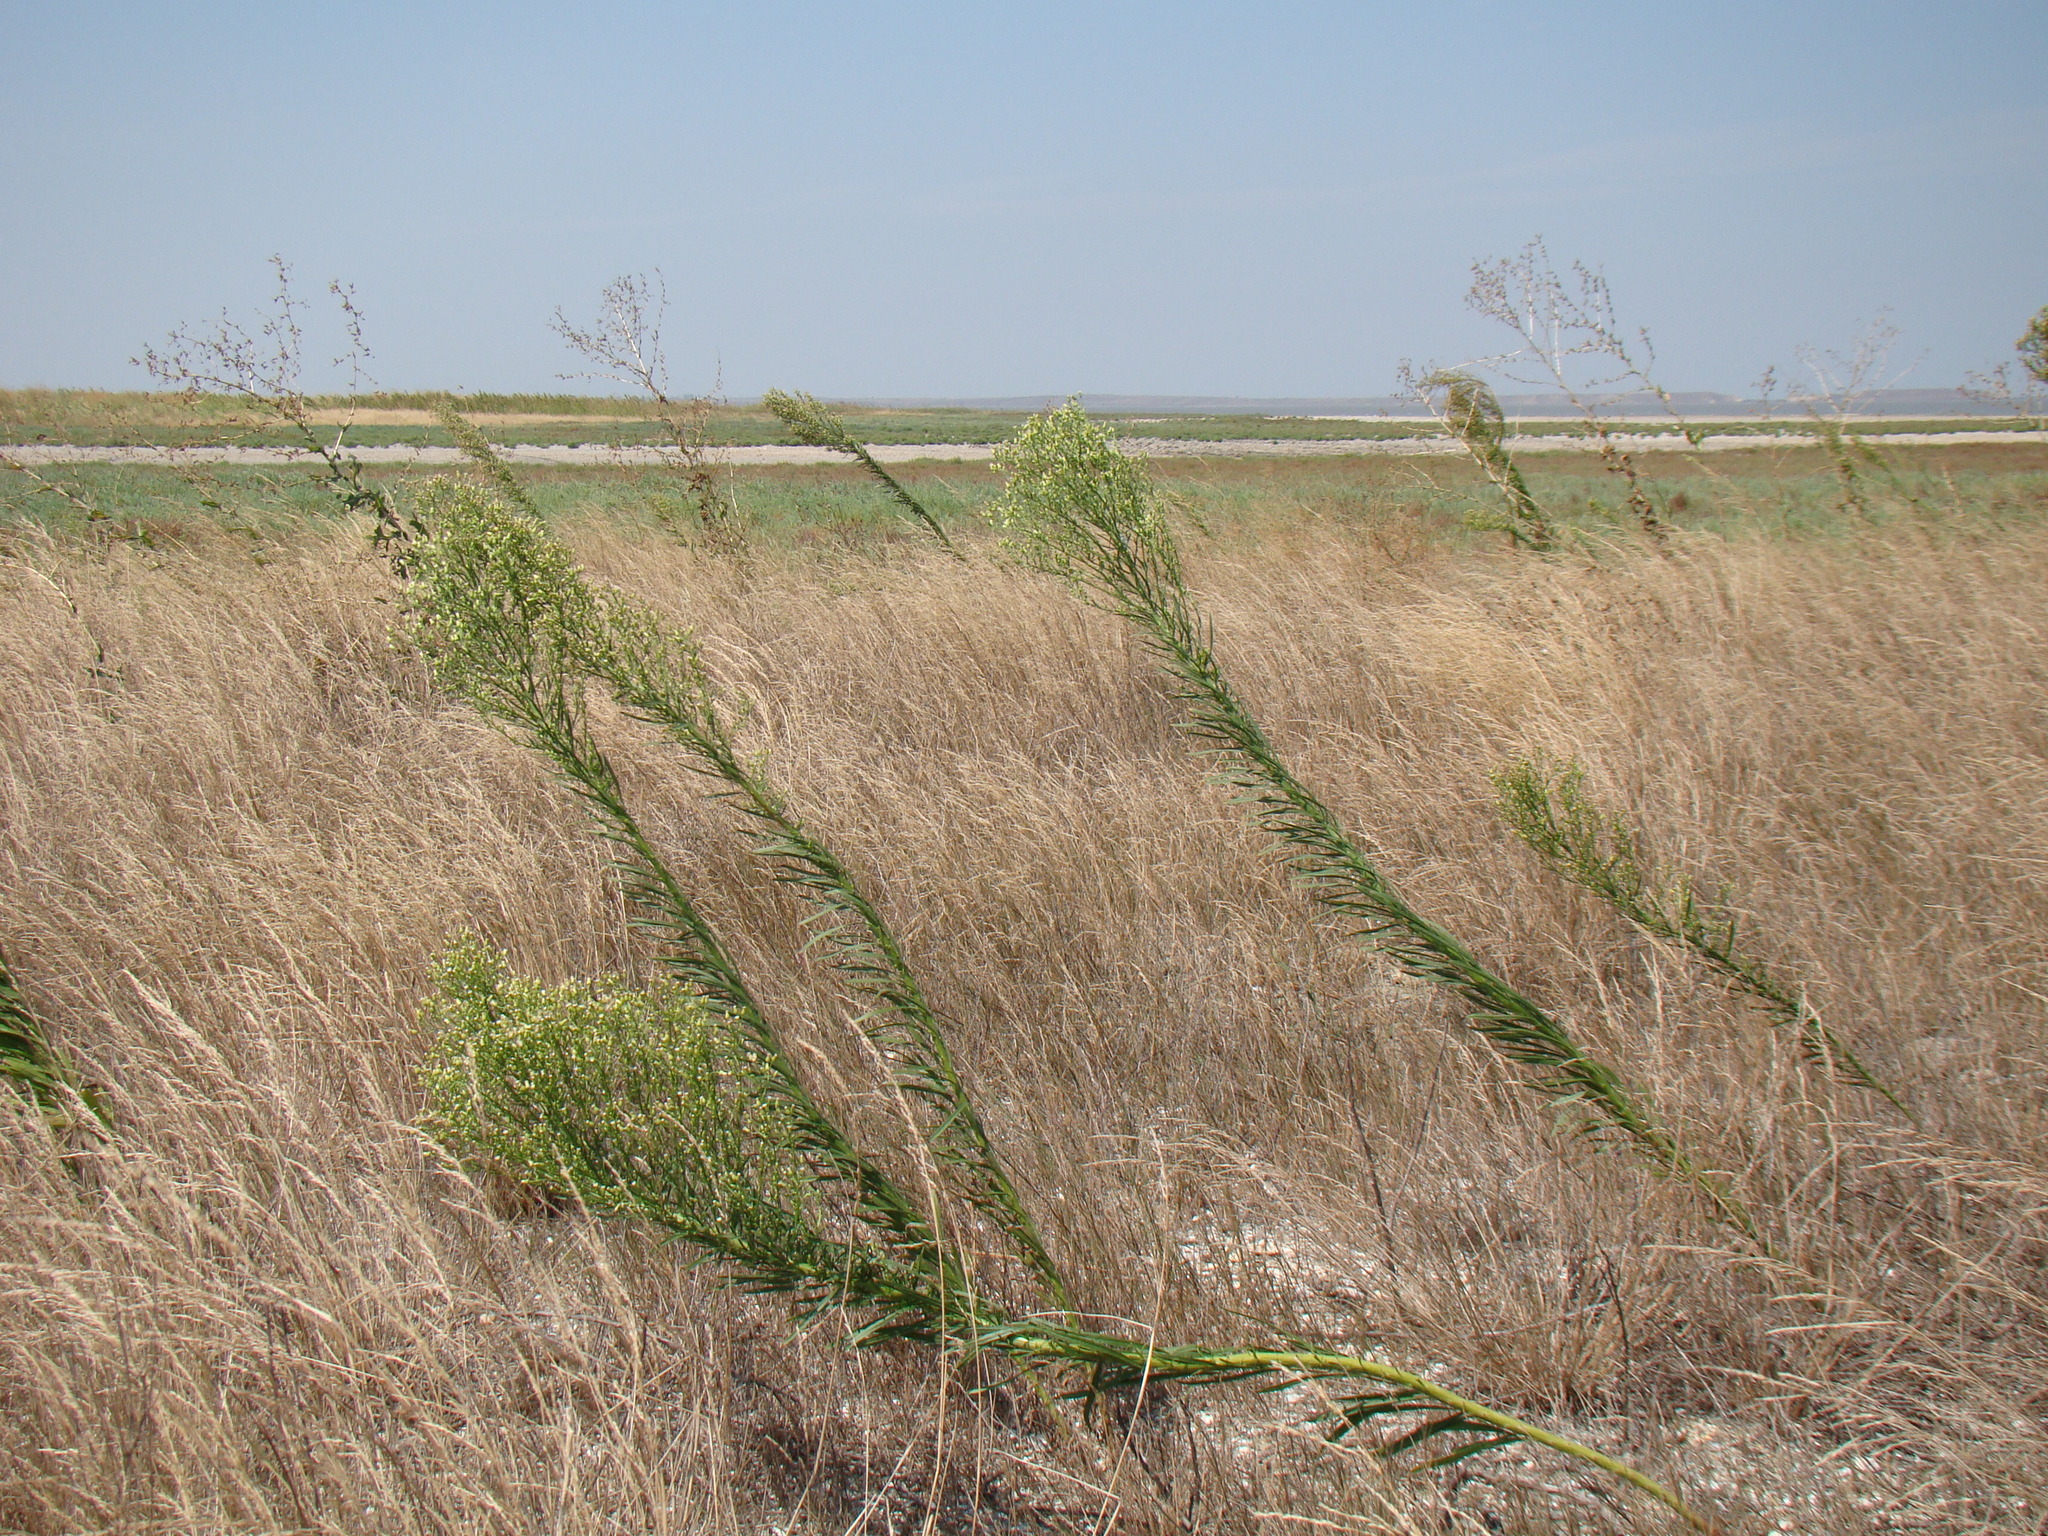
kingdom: Plantae
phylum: Tracheophyta
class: Magnoliopsida
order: Asterales
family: Asteraceae
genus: Erigeron
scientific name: Erigeron canadensis
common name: Canadian fleabane
